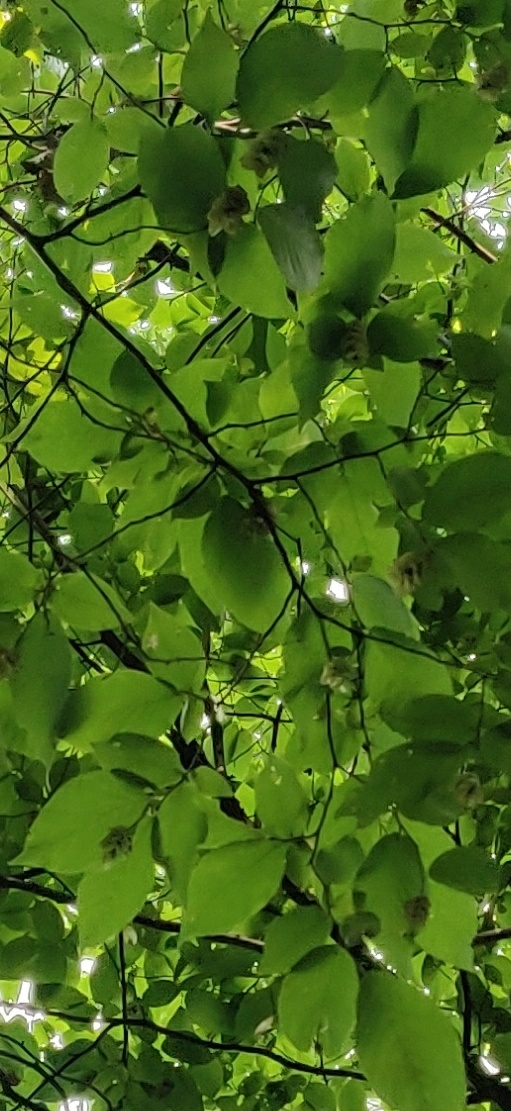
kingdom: Plantae
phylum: Tracheophyta
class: Magnoliopsida
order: Fagales
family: Betulaceae
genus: Ostrya
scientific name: Ostrya virginiana
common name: Ironwood
